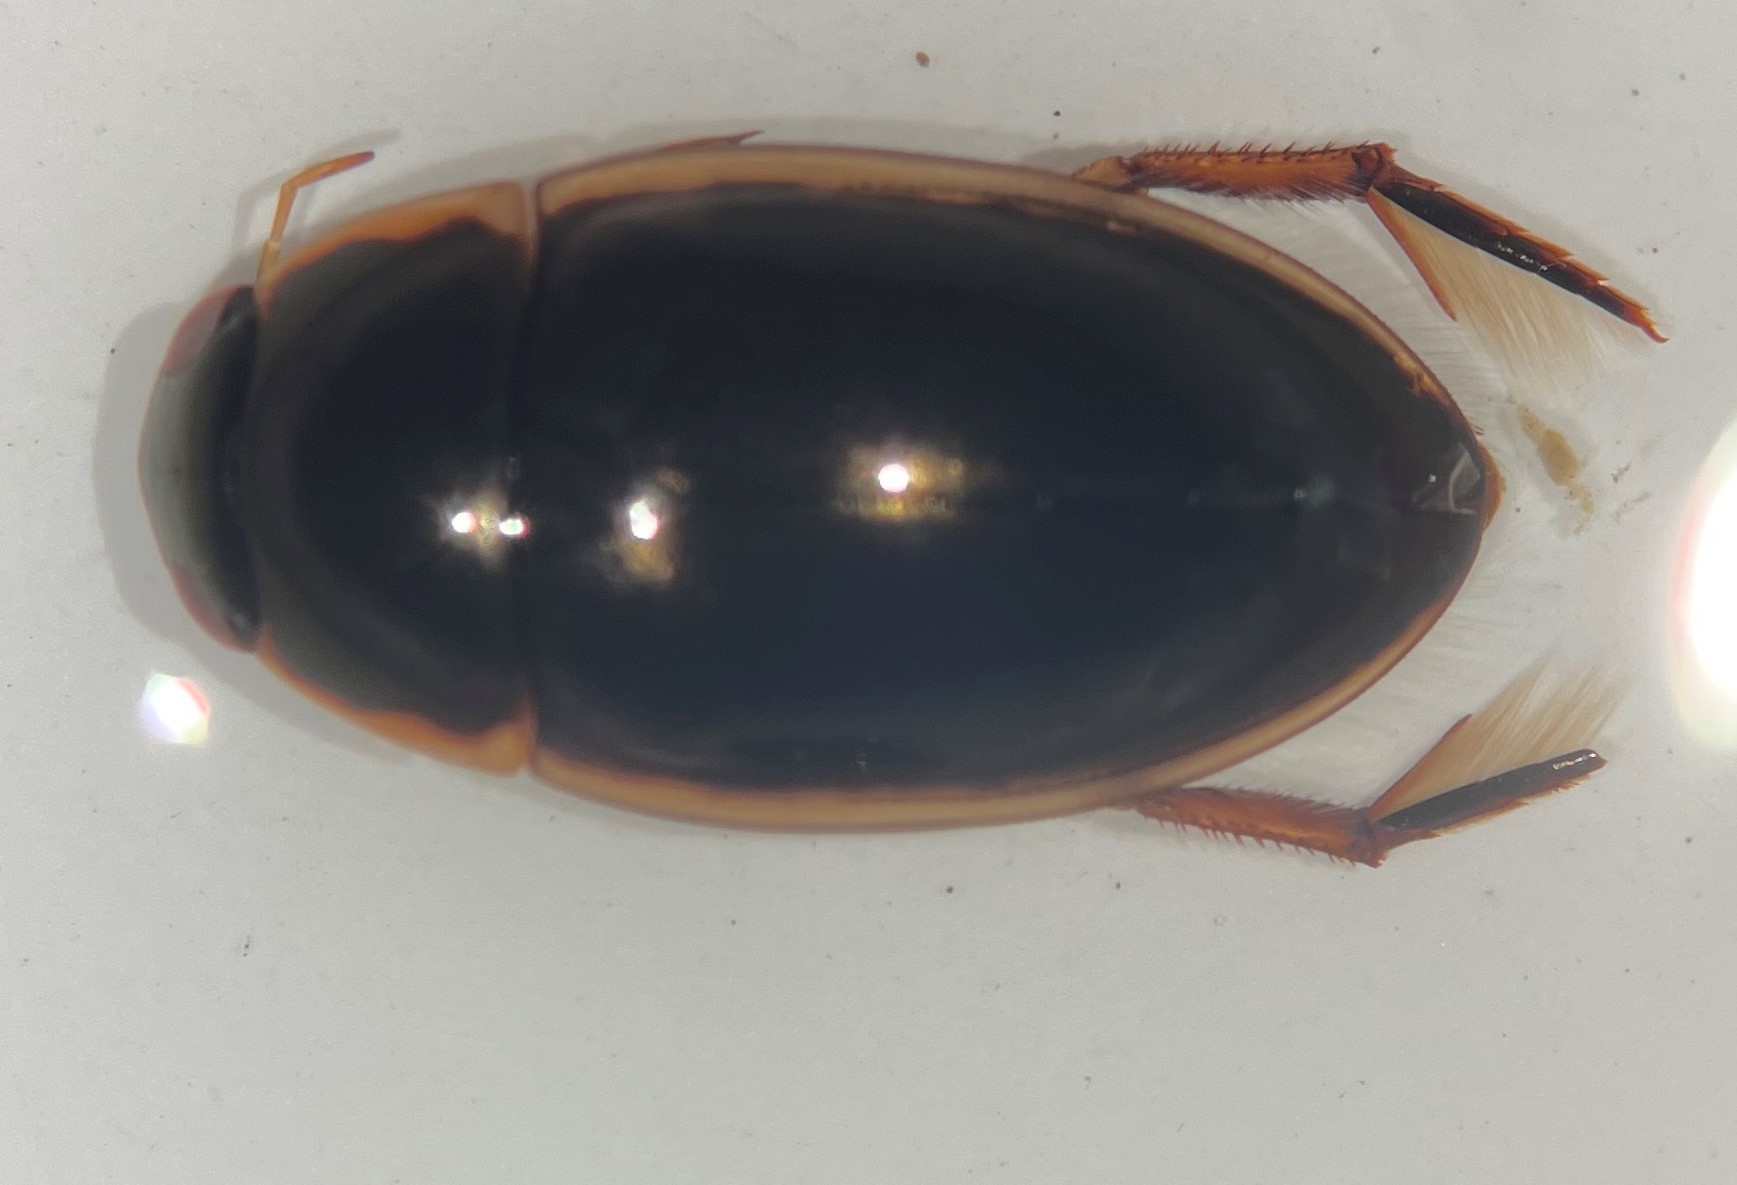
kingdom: Animalia
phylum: Arthropoda
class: Insecta
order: Coleoptera
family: Hydrophilidae
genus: Tropisternus
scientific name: Tropisternus lateralis
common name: Lateral-banded water scavenger beetle
